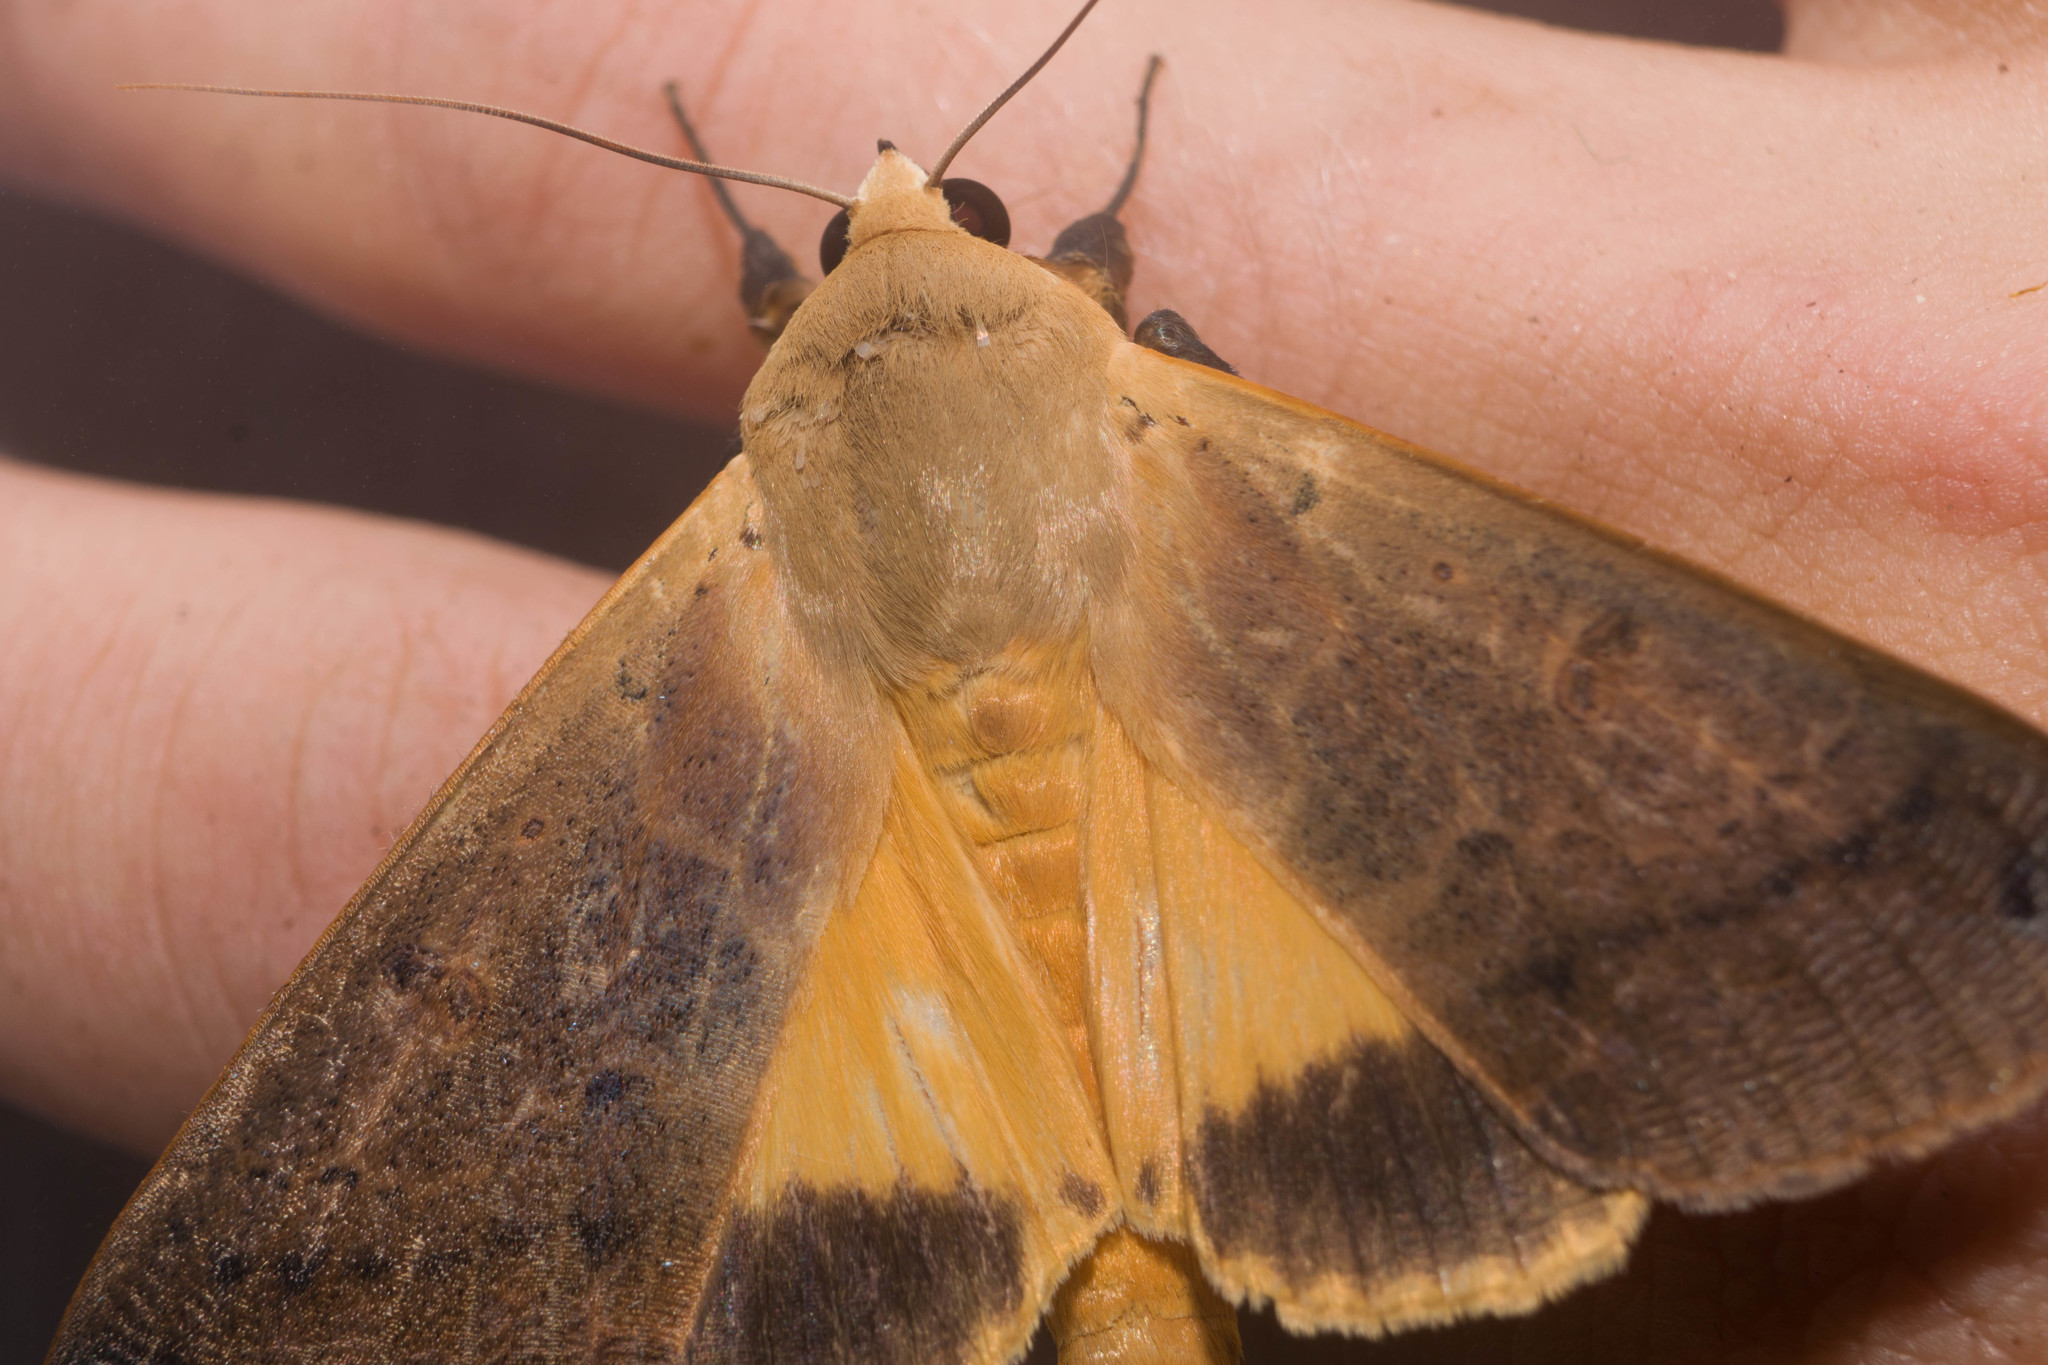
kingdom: Animalia
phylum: Arthropoda
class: Insecta
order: Lepidoptera
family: Erebidae
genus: Ophiusa
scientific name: Ophiusa disjungens
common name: Moth
